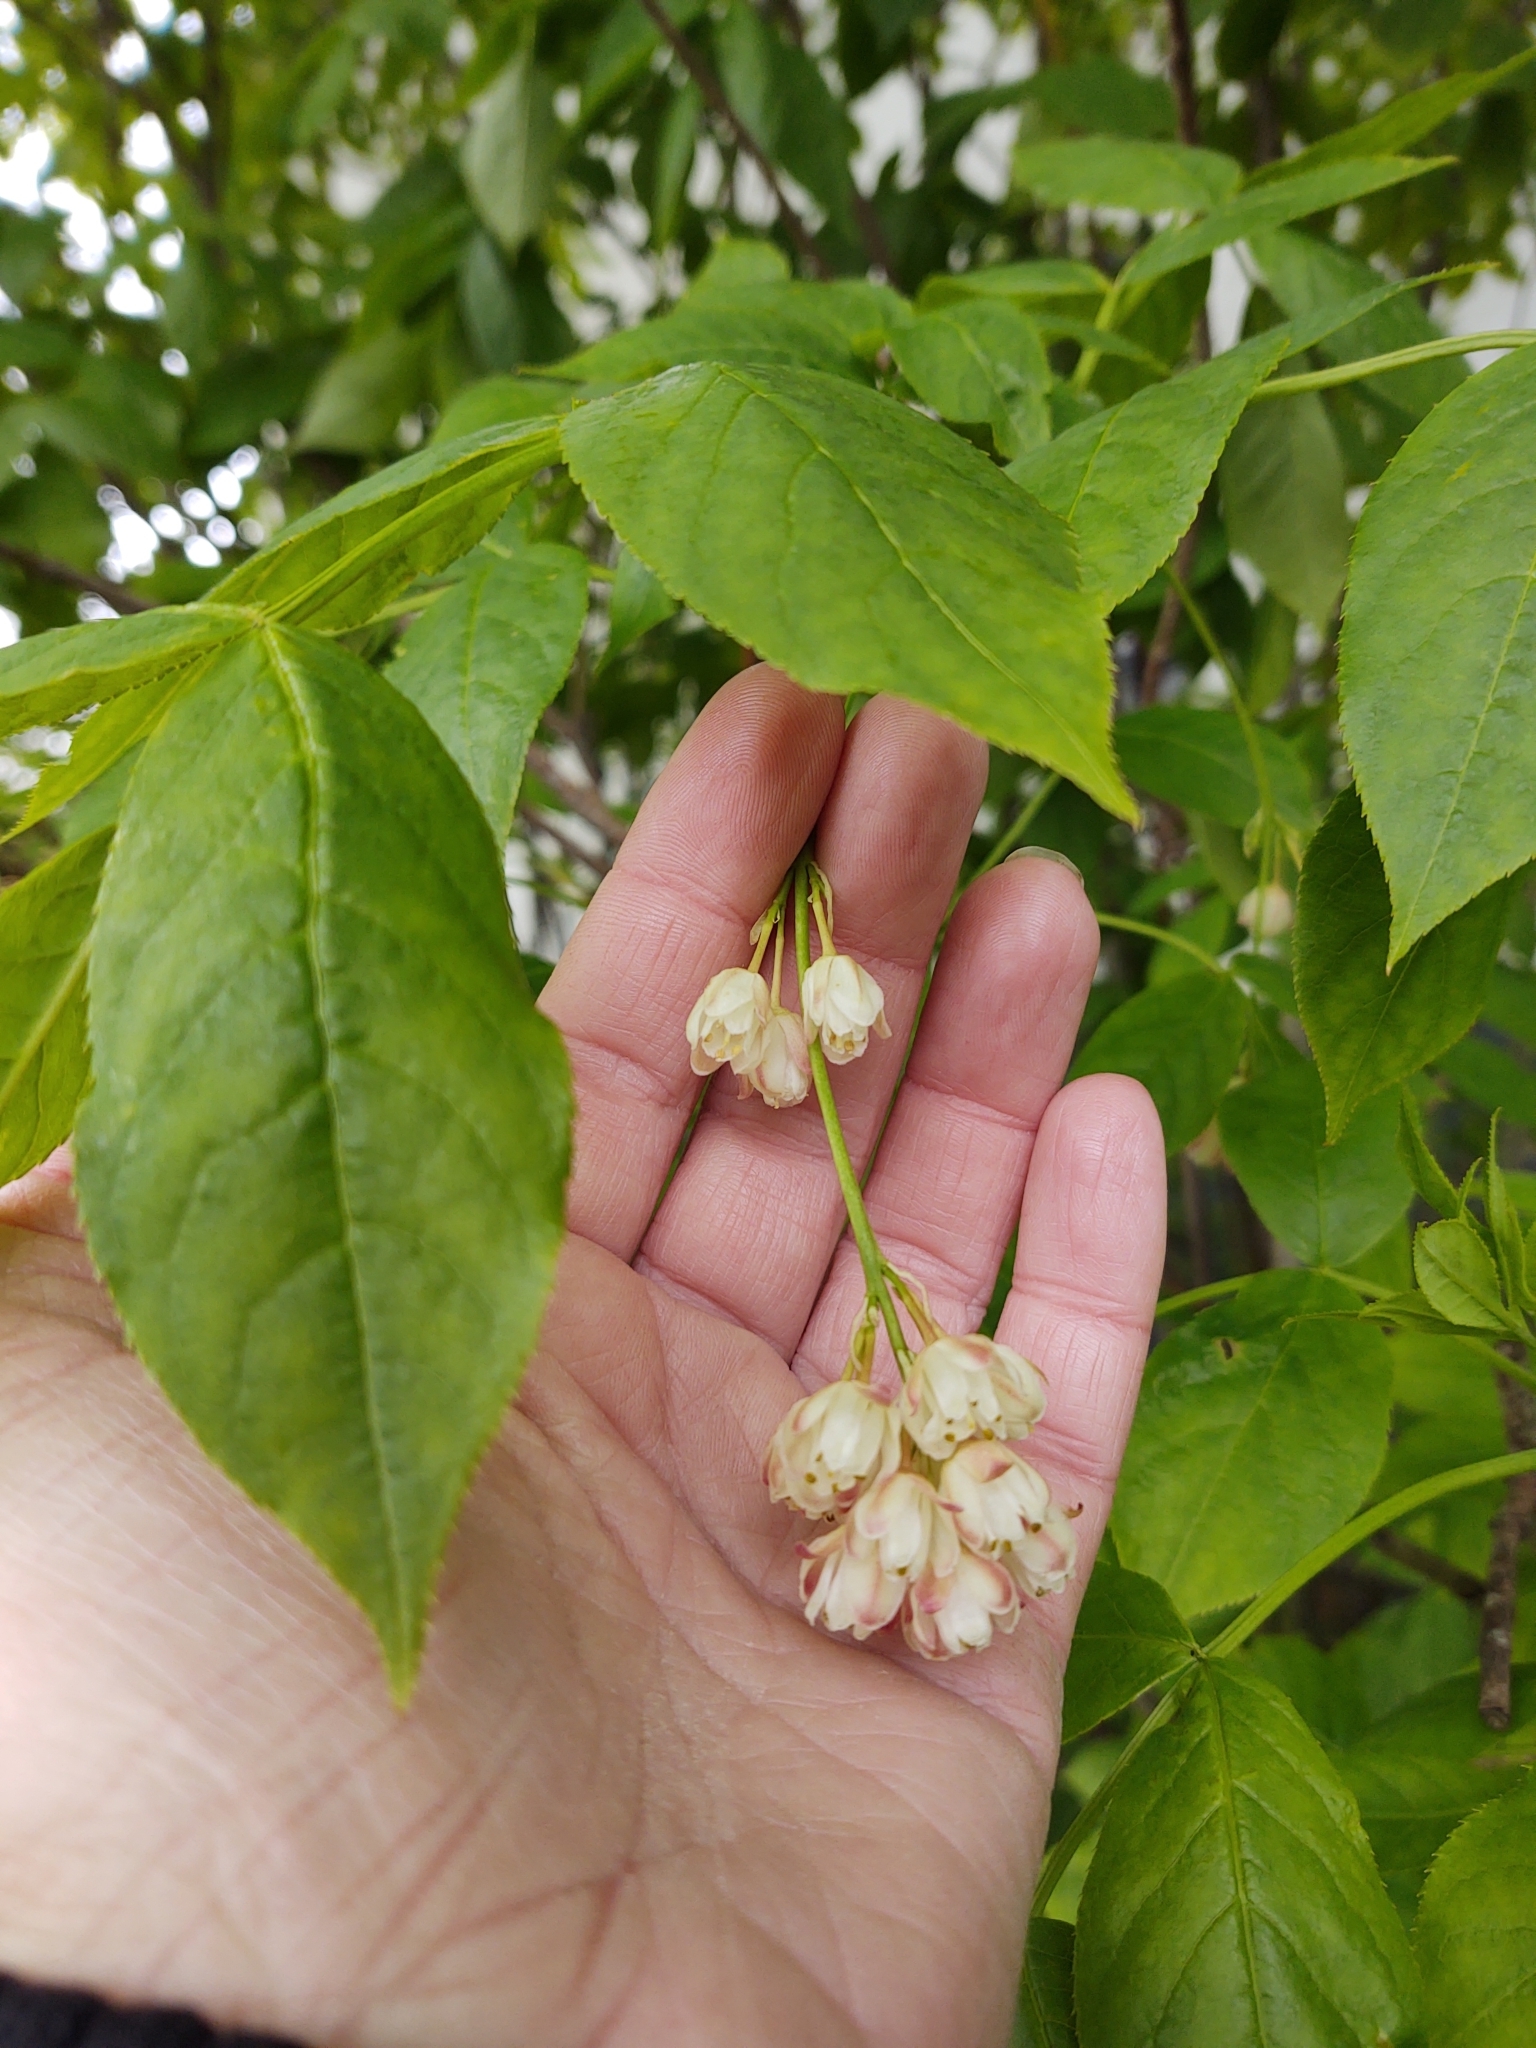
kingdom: Plantae
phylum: Tracheophyta
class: Magnoliopsida
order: Crossosomatales
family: Staphyleaceae
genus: Staphylea
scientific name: Staphylea pinnata
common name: Bladdernut
